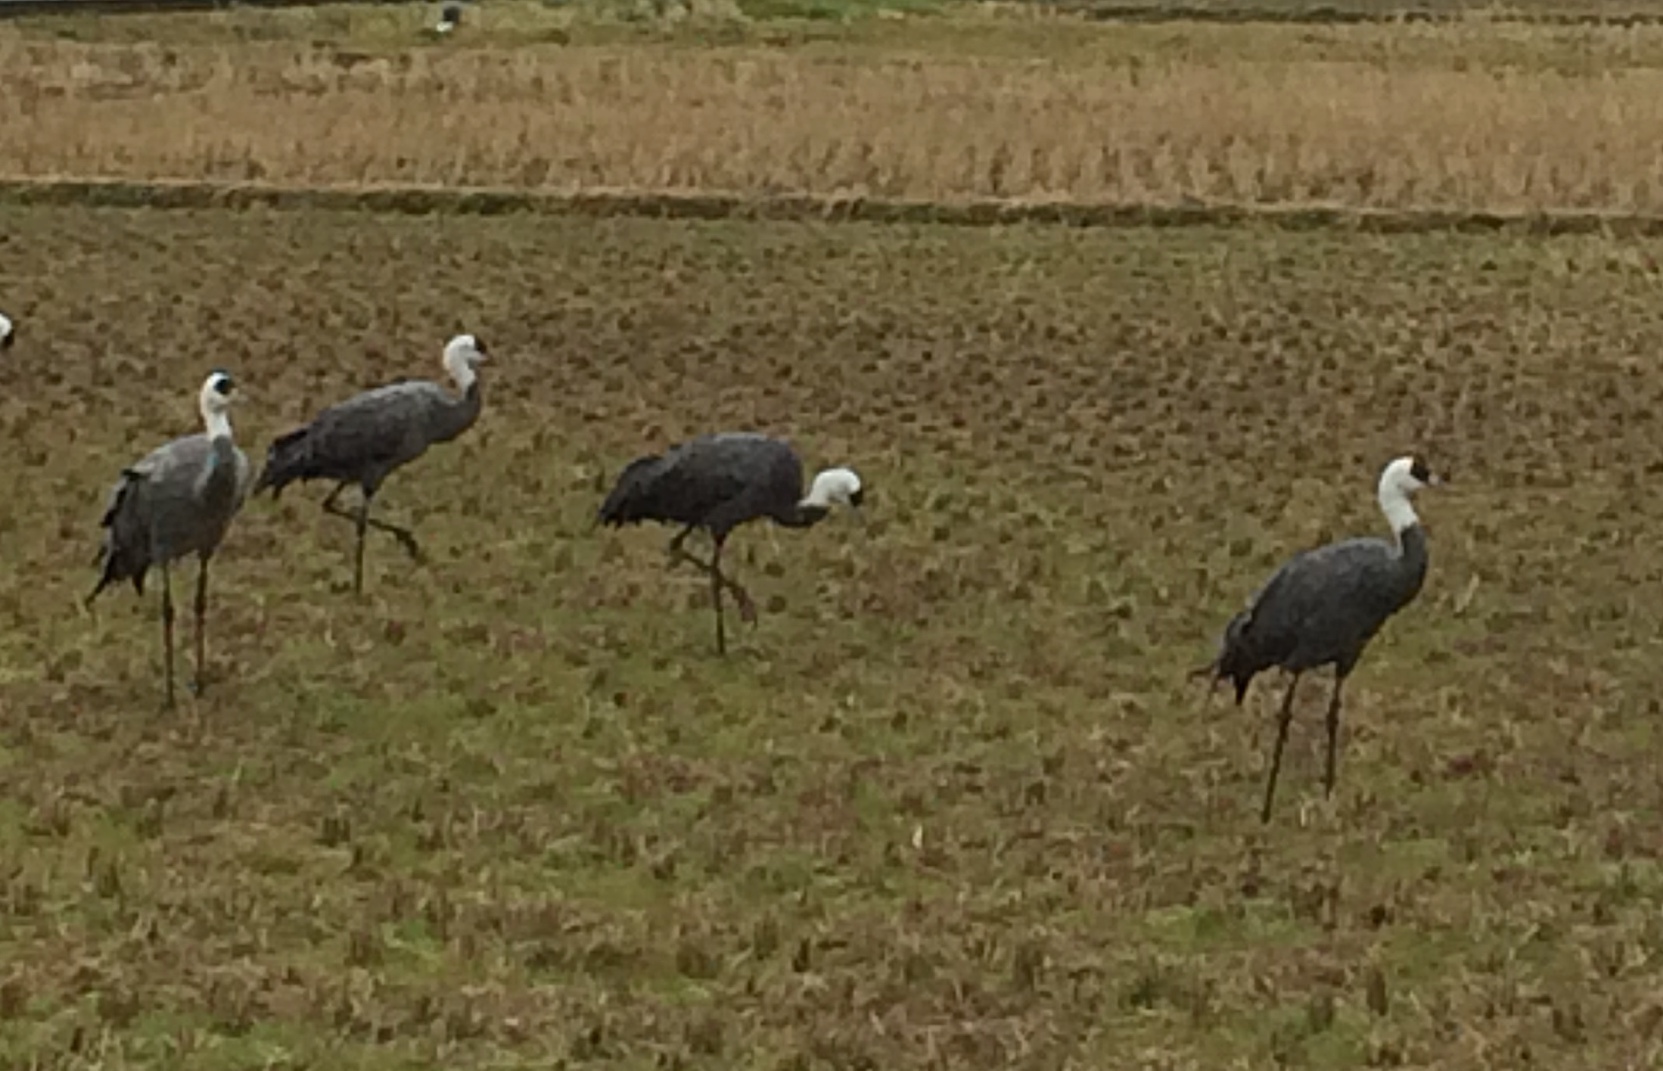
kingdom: Animalia
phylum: Chordata
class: Aves
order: Gruiformes
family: Gruidae
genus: Grus
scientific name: Grus monacha
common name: Hooded crane
